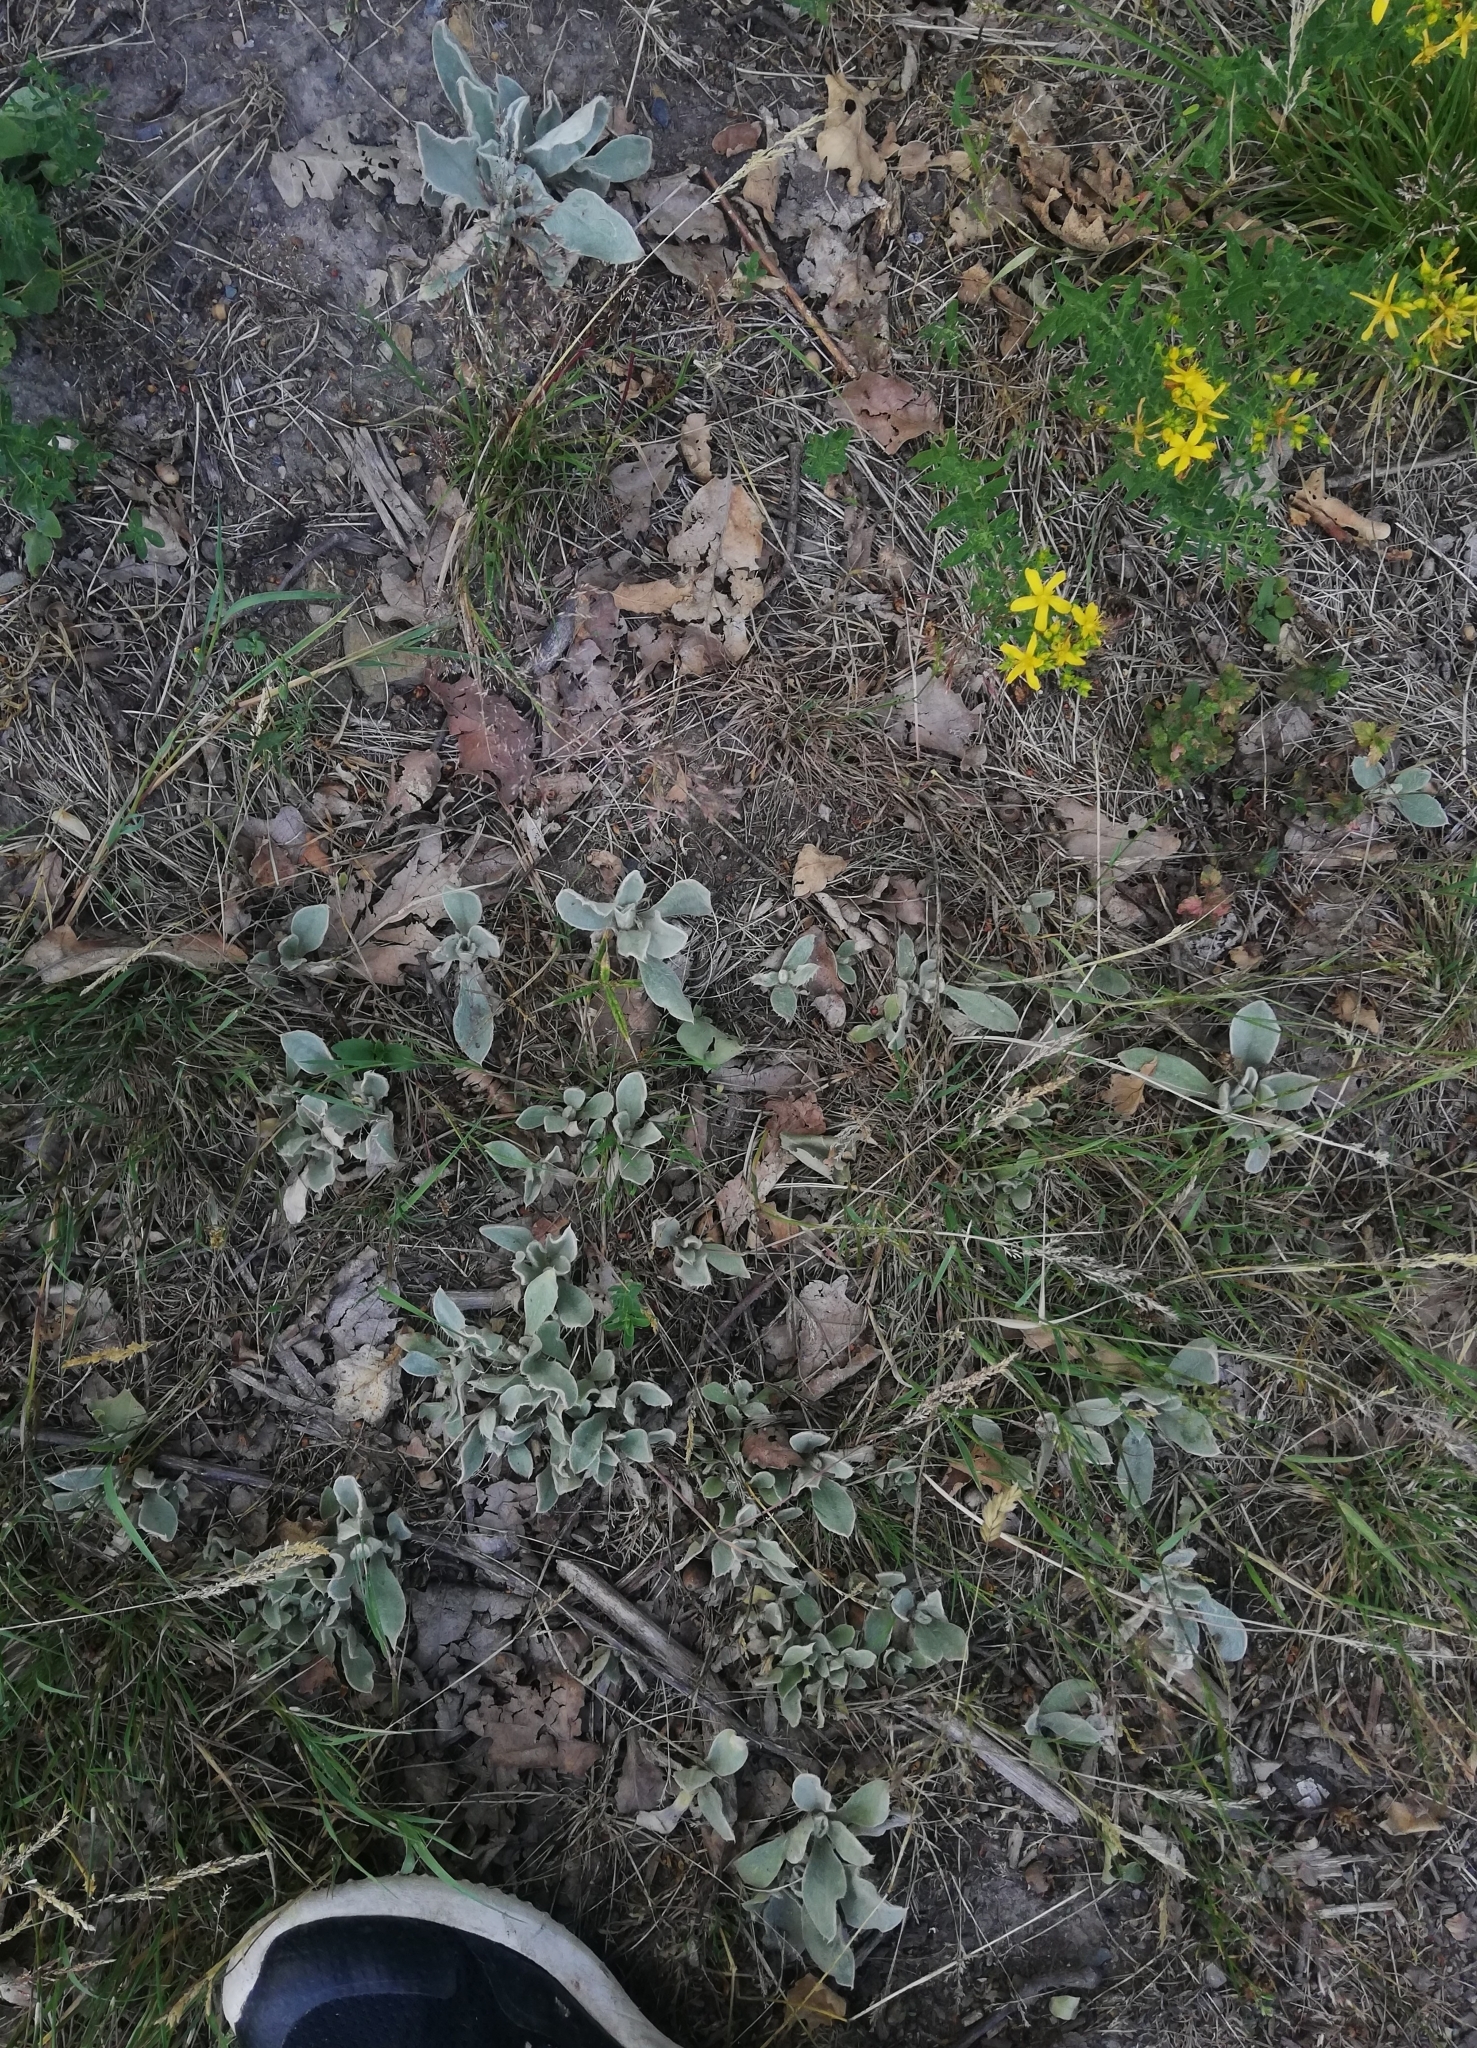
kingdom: Plantae
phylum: Tracheophyta
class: Magnoliopsida
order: Caryophyllales
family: Caryophyllaceae
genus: Silene
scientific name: Silene coronaria
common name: Rose campion
